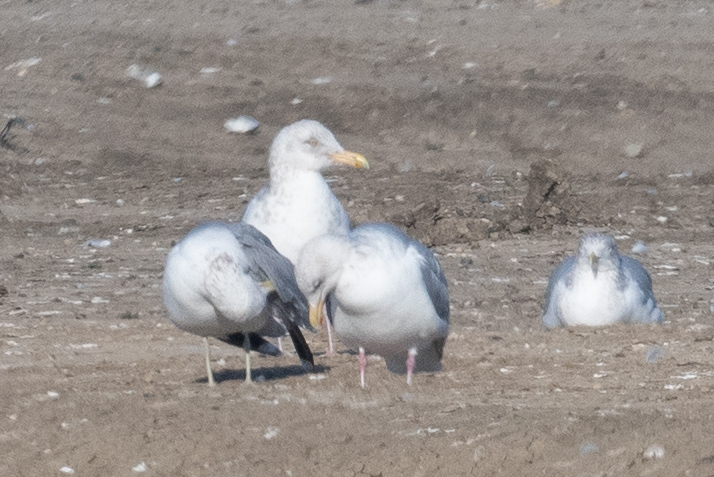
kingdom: Animalia
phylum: Chordata
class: Aves
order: Charadriiformes
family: Laridae
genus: Larus
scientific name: Larus argentatus
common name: Herring gull
